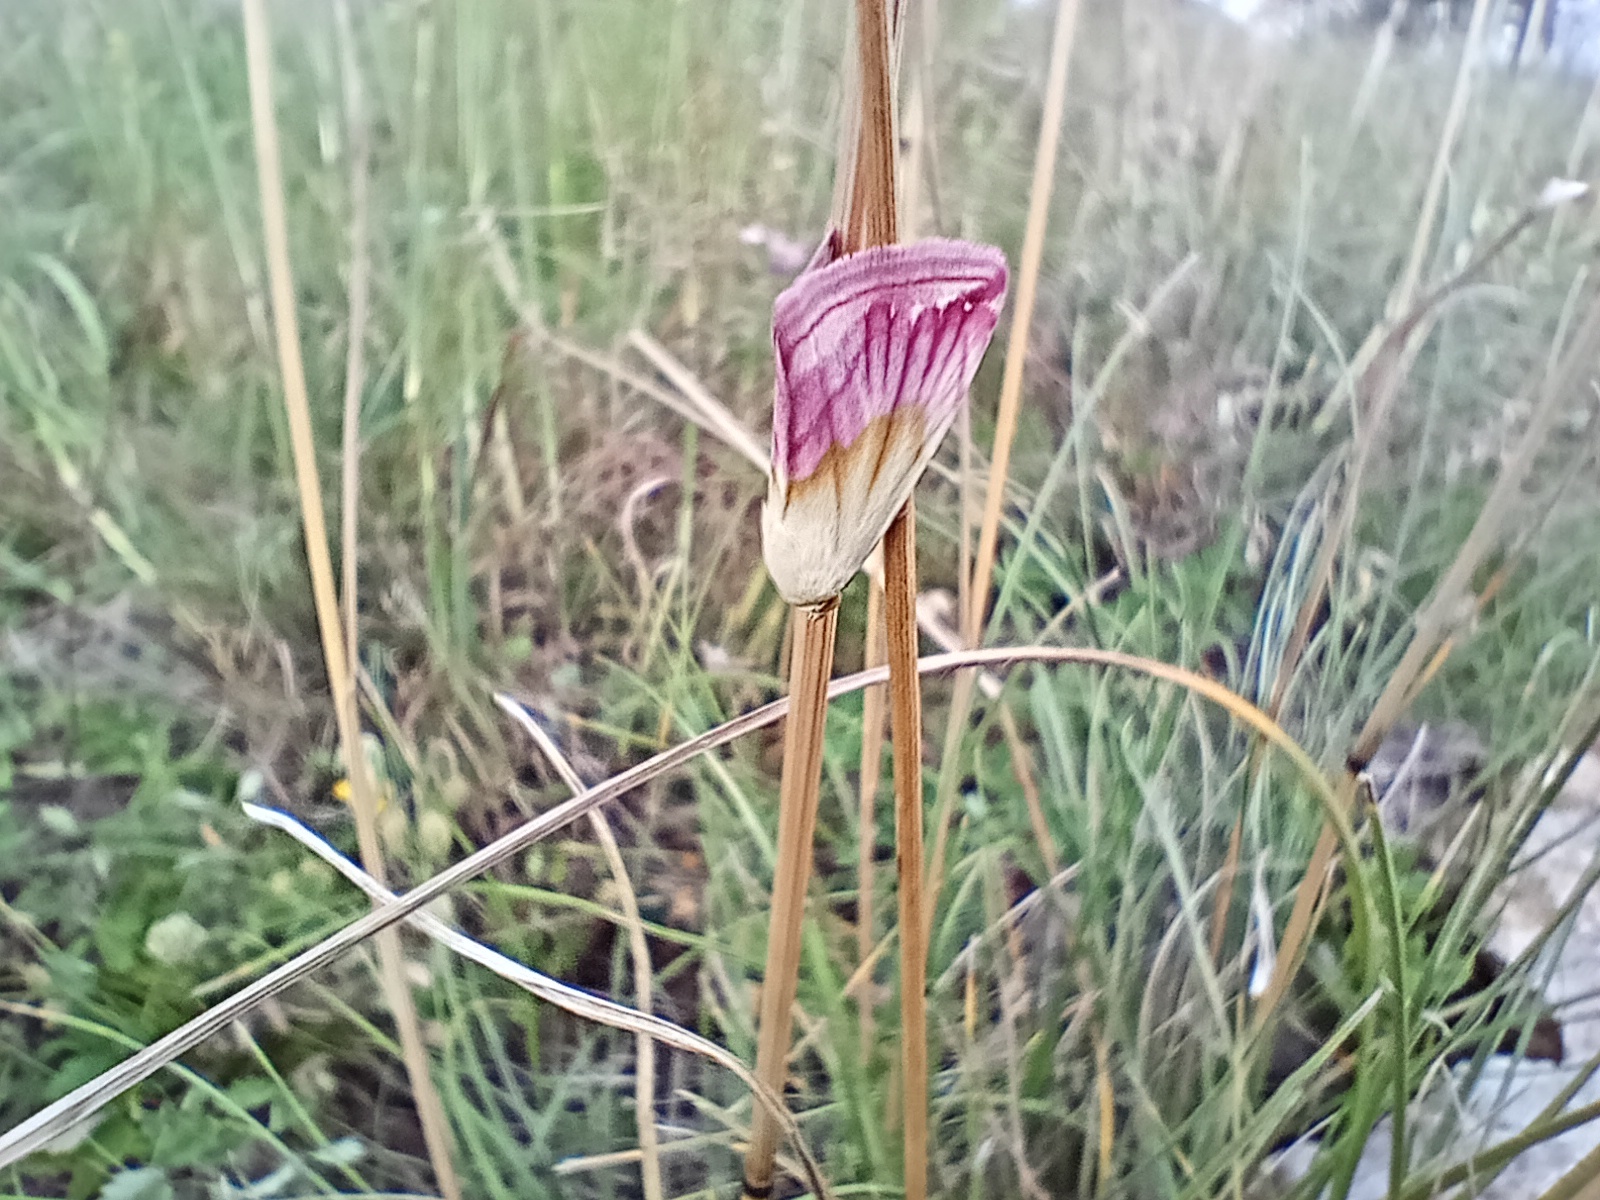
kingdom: Animalia
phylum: Arthropoda
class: Insecta
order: Lepidoptera
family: Noctuidae
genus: Eublemma
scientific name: Eublemma purpurina
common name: Beautiful marbled
